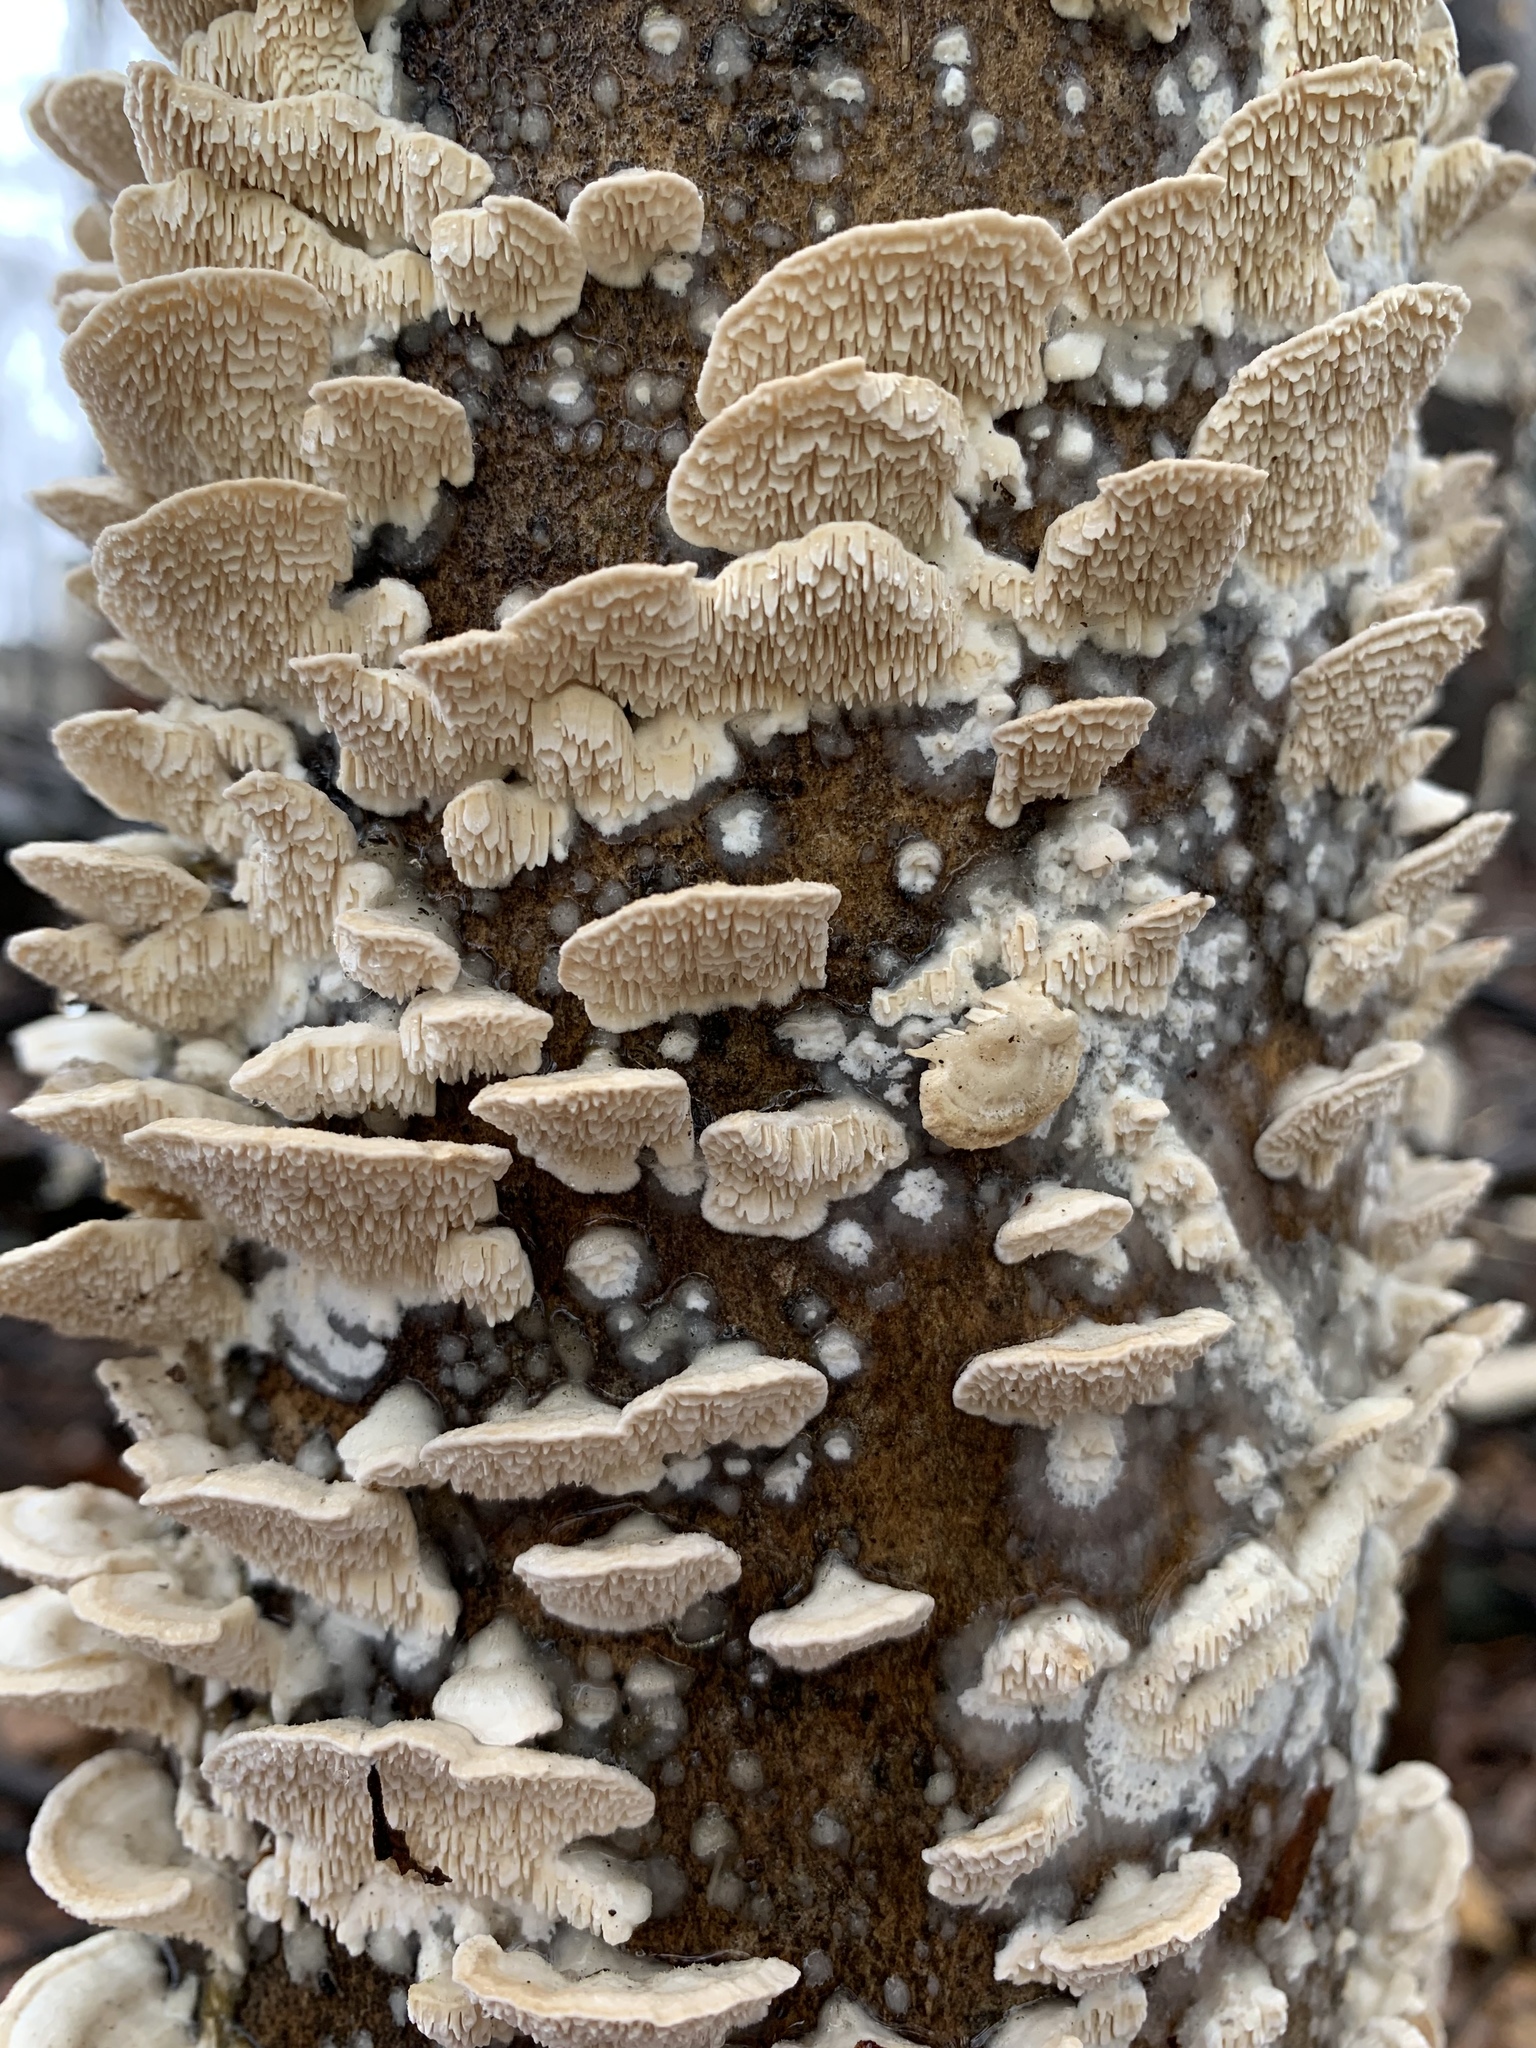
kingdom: Fungi
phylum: Basidiomycota
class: Agaricomycetes
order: Polyporales
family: Meruliaceae
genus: Irpiciporus
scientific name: Irpiciporus pachyodon
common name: Marshmallow polypore
